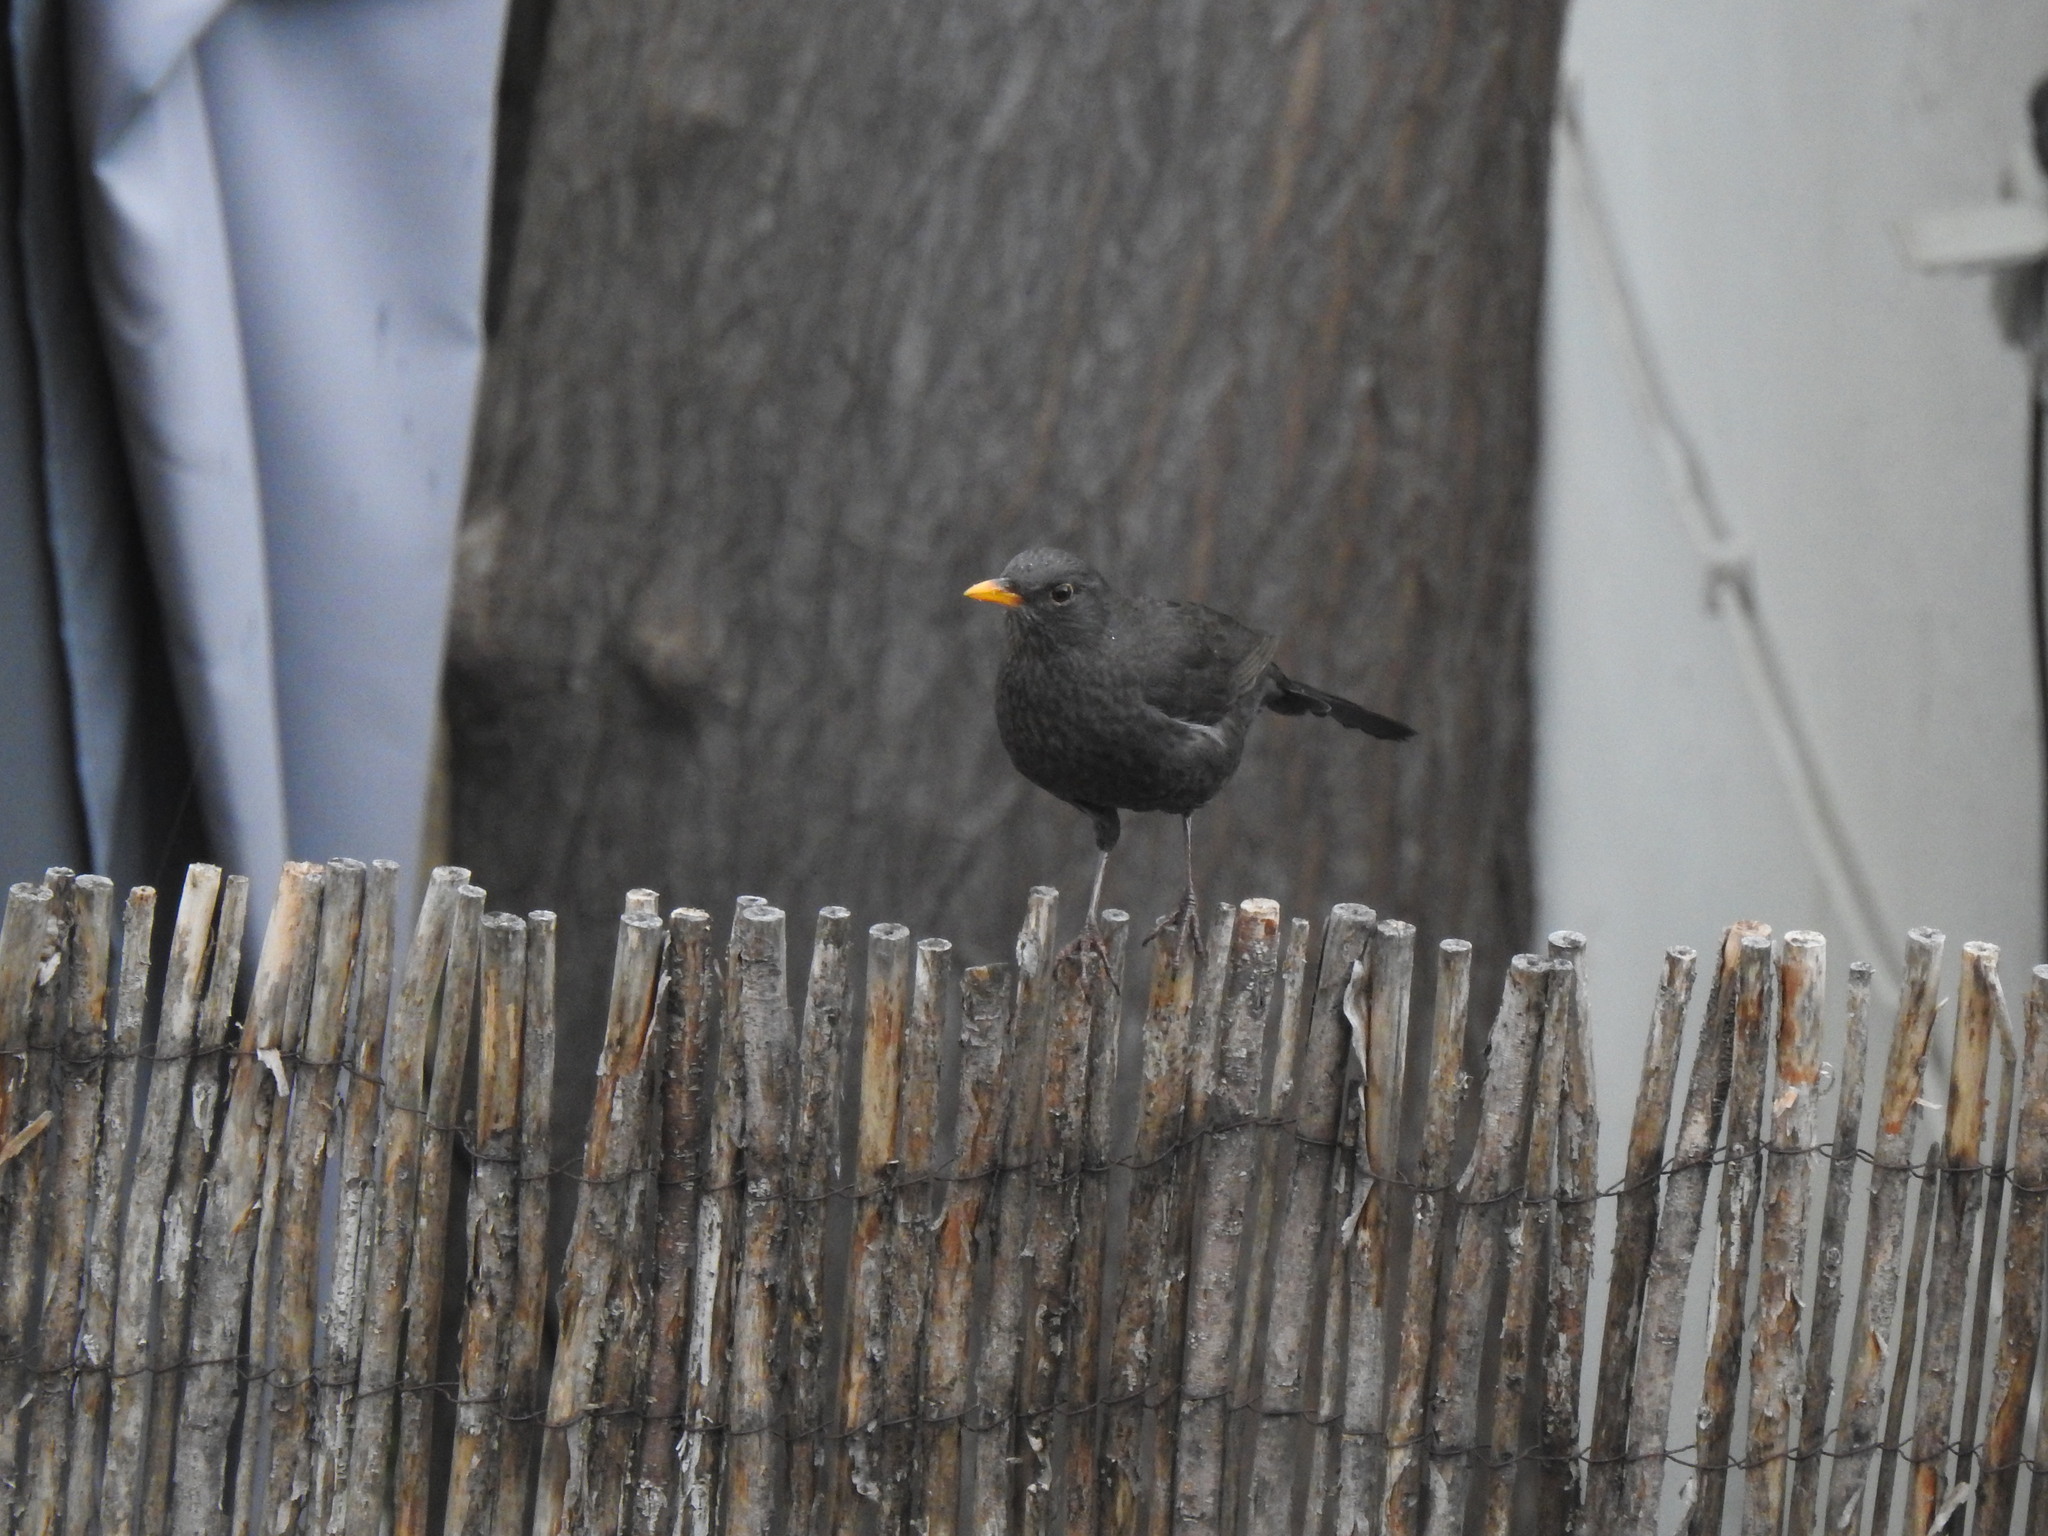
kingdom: Animalia
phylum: Chordata
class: Aves
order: Passeriformes
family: Turdidae
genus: Turdus
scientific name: Turdus merula
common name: Common blackbird
